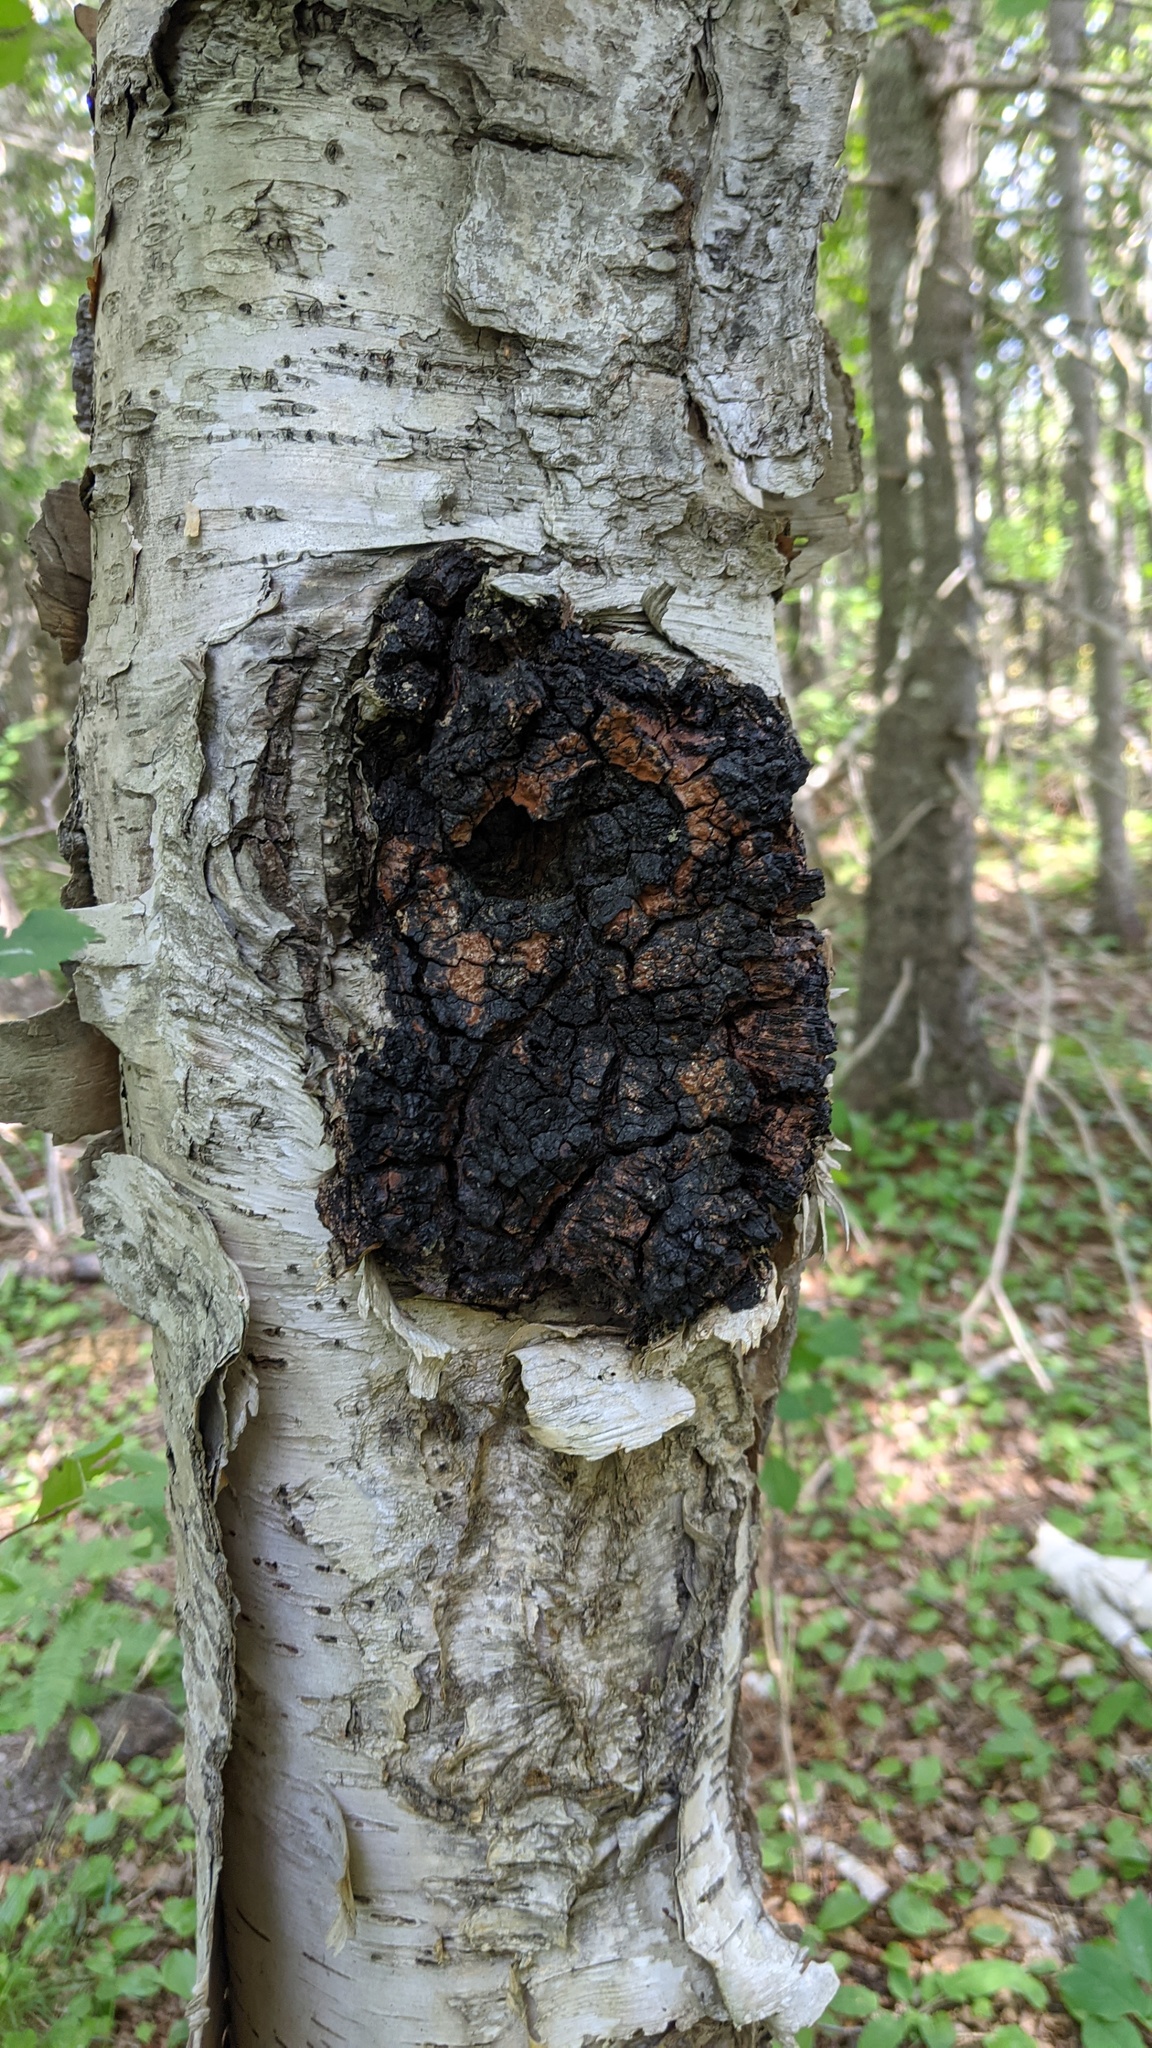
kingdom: Fungi
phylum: Basidiomycota
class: Agaricomycetes
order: Hymenochaetales
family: Hymenochaetaceae
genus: Inonotus
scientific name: Inonotus obliquus
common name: Chaga
